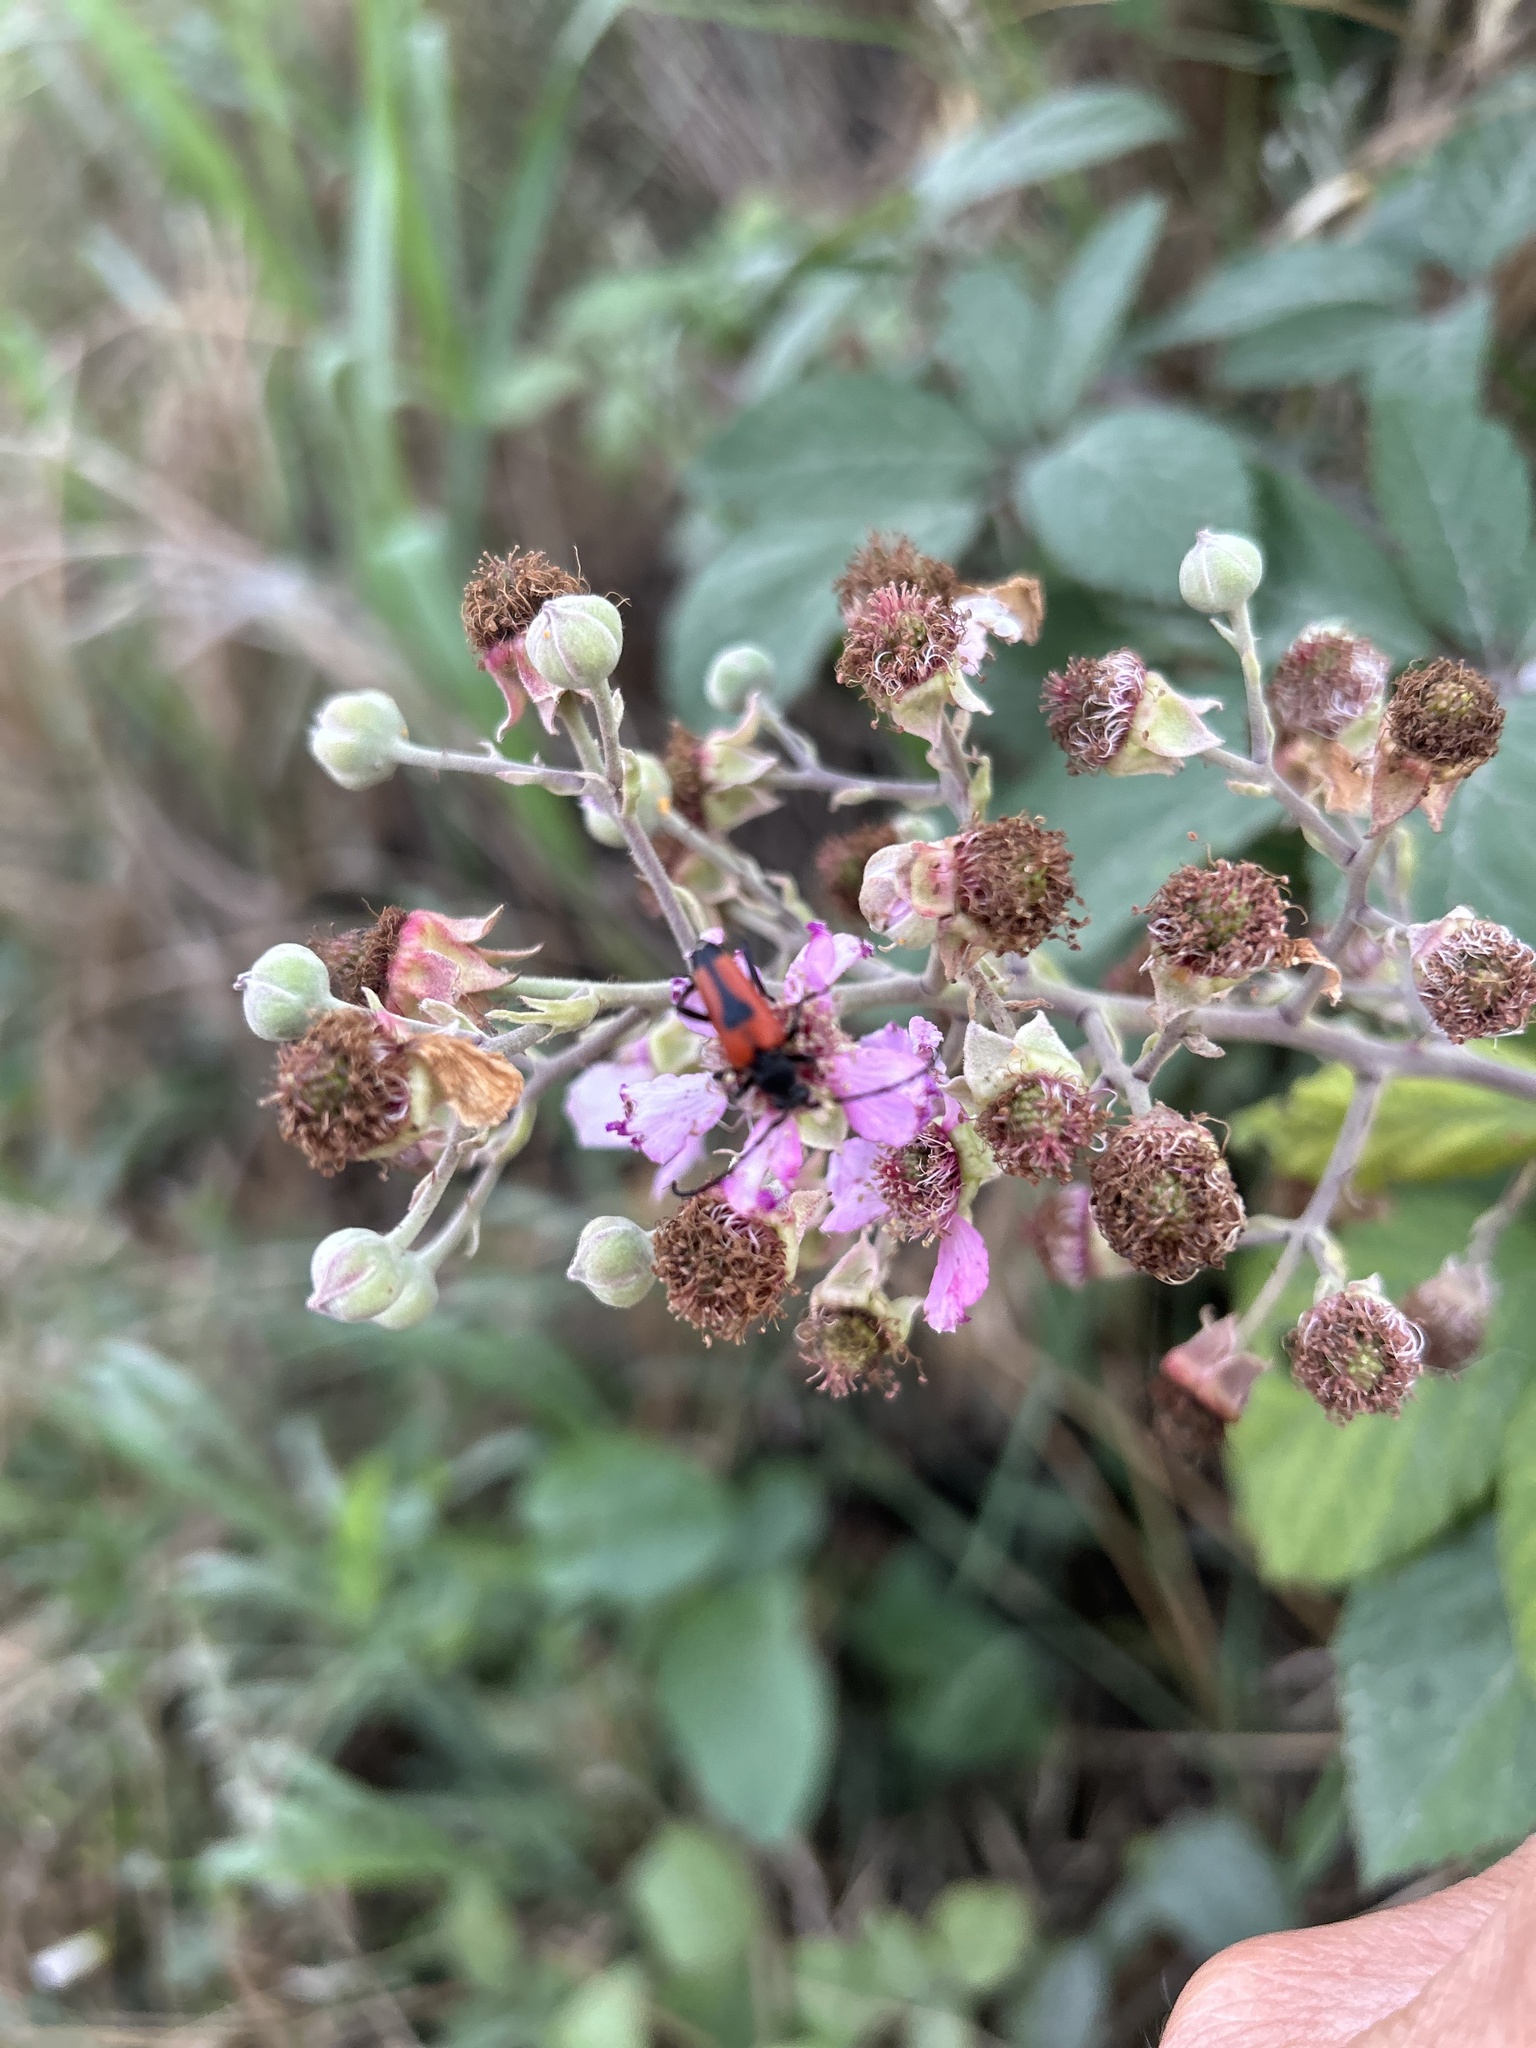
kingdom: Animalia
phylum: Arthropoda
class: Insecta
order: Coleoptera
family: Cerambycidae
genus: Stictoleptura
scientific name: Stictoleptura cordigera
